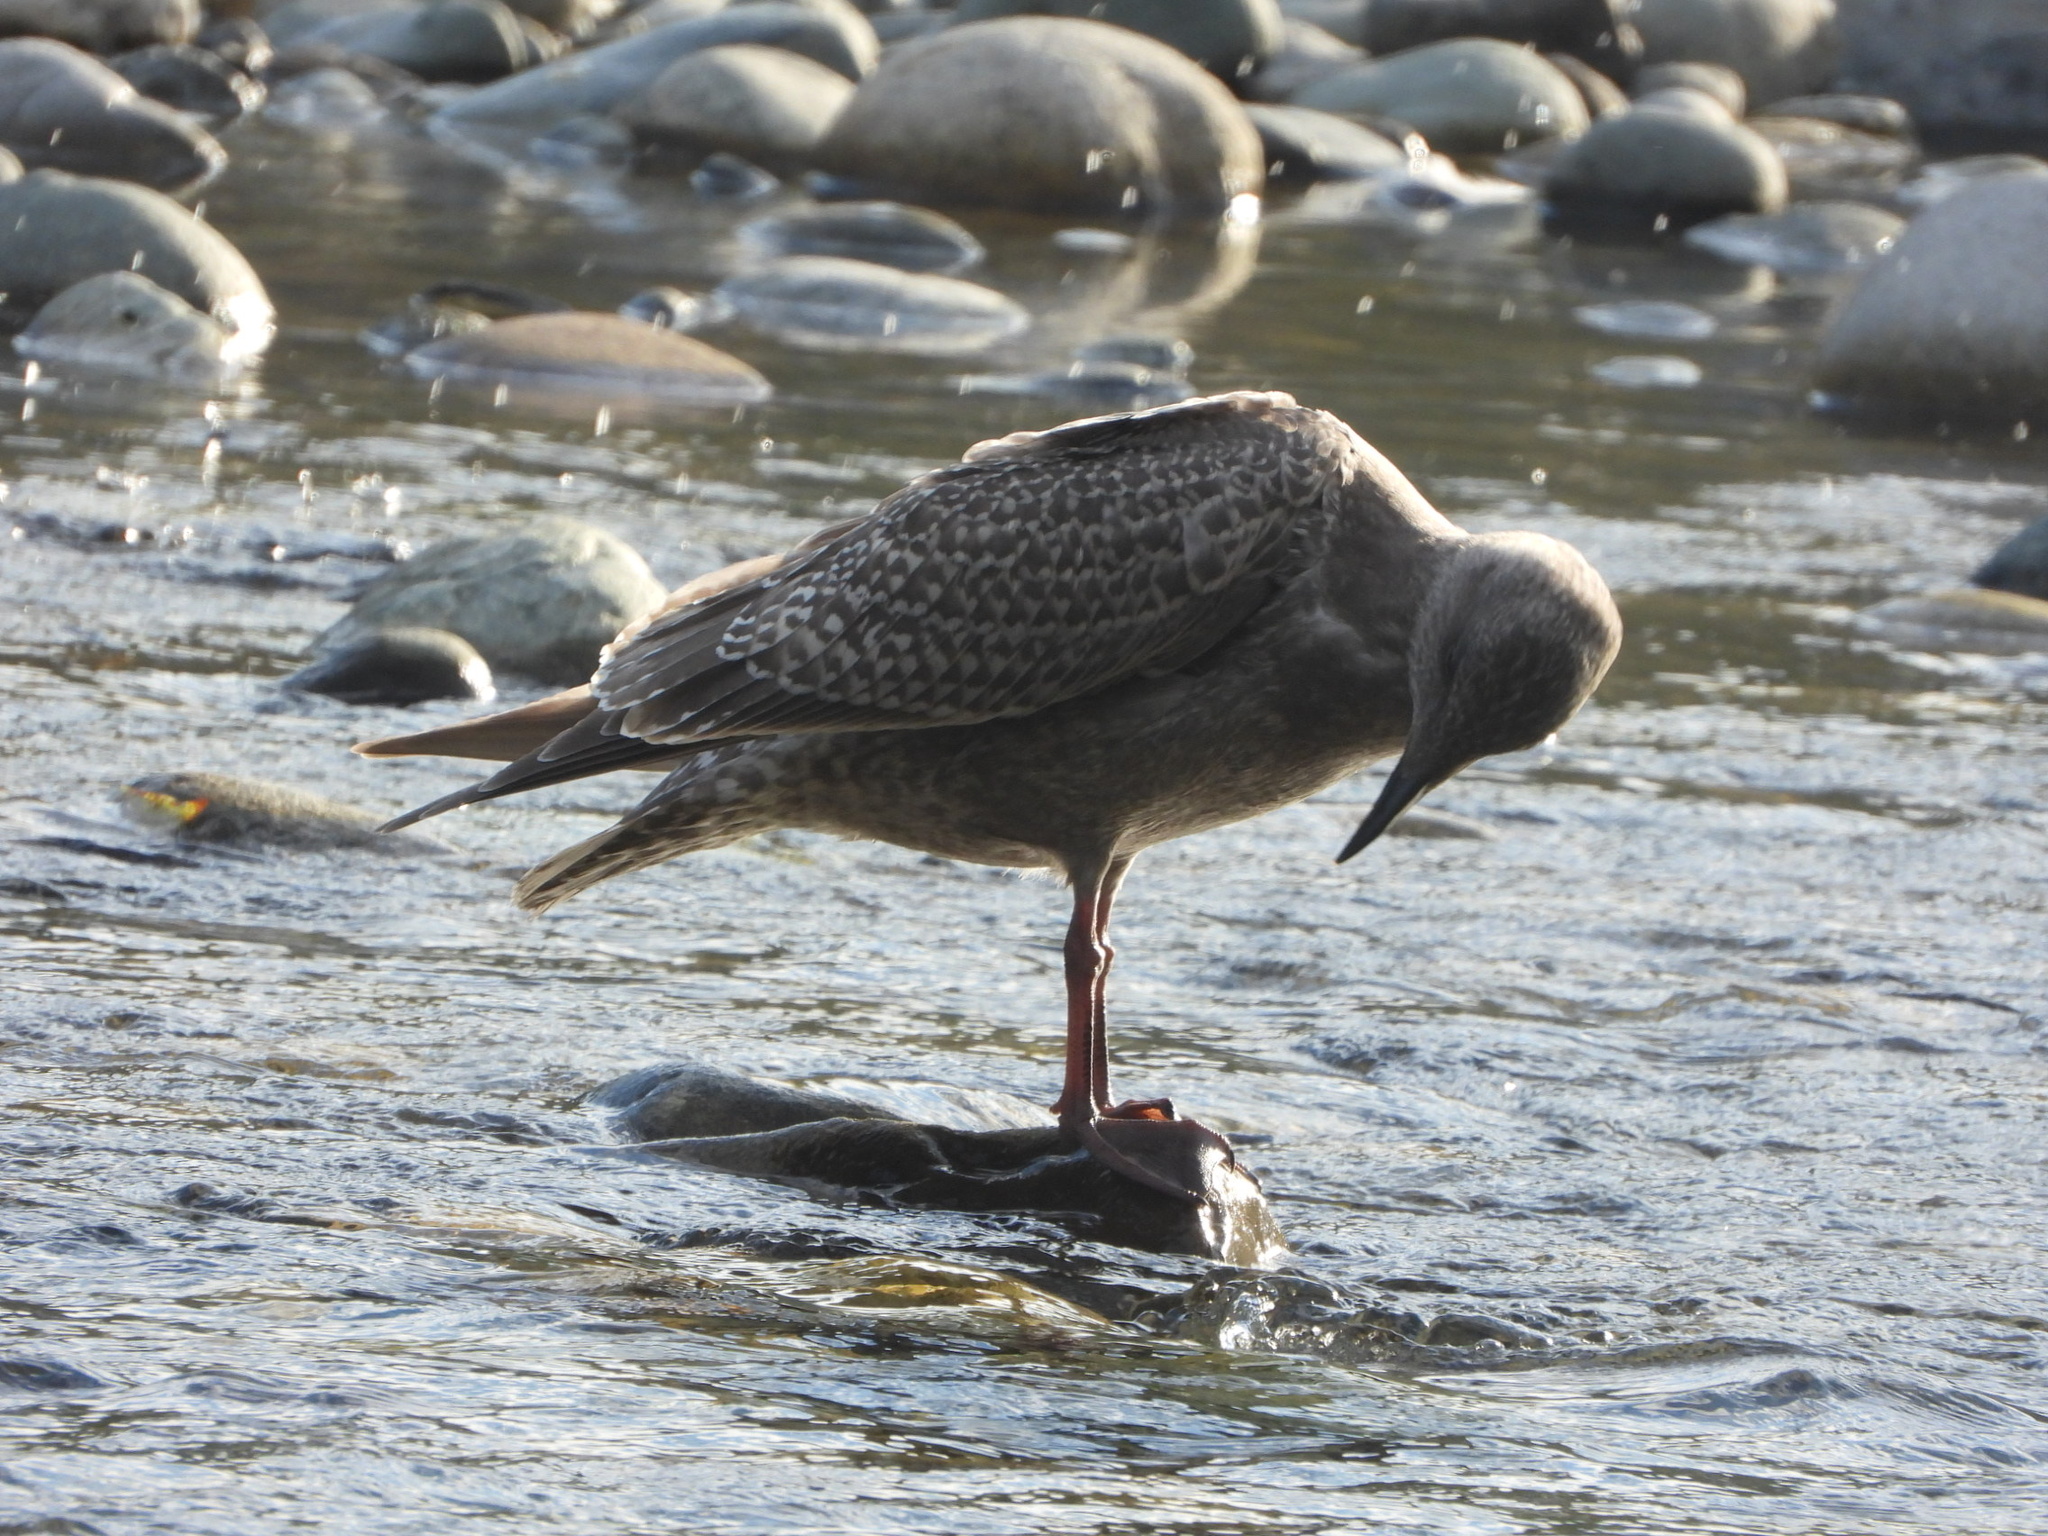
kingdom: Animalia
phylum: Chordata
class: Aves
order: Charadriiformes
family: Laridae
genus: Larus
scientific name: Larus glaucescens
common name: Glaucous-winged gull
